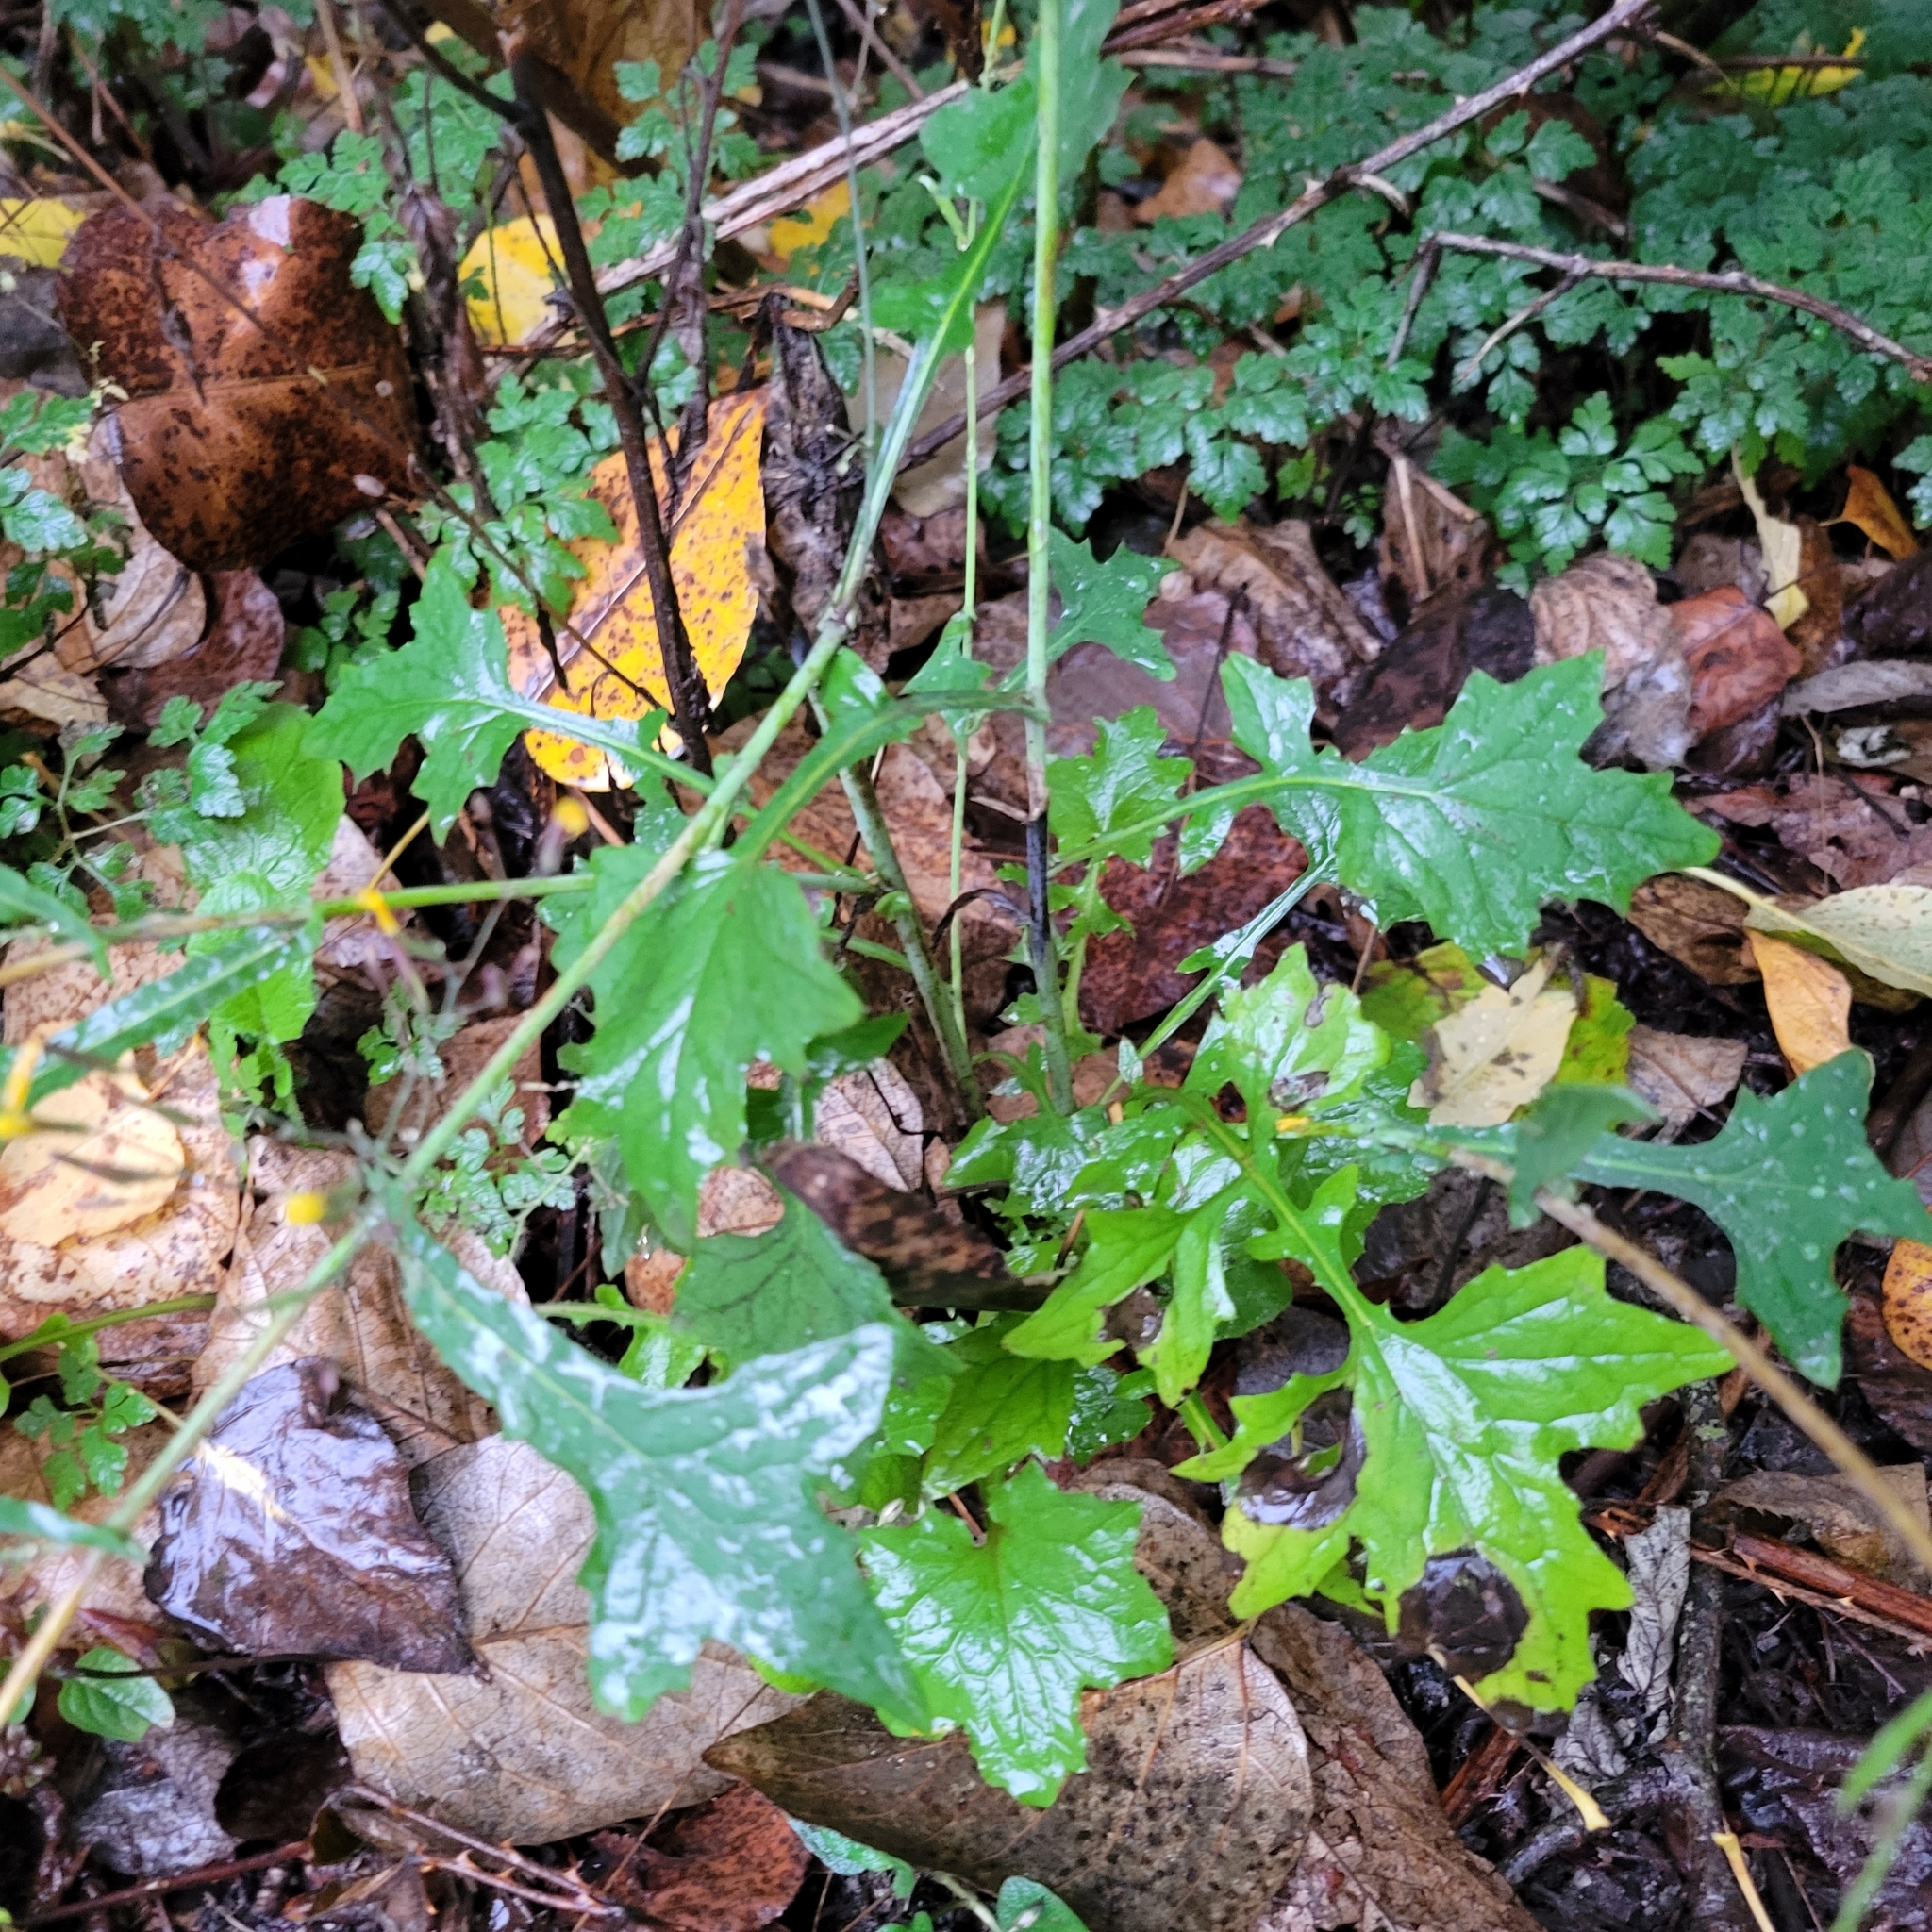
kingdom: Plantae
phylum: Tracheophyta
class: Magnoliopsida
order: Asterales
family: Asteraceae
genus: Mycelis
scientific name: Mycelis muralis
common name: Wall lettuce
